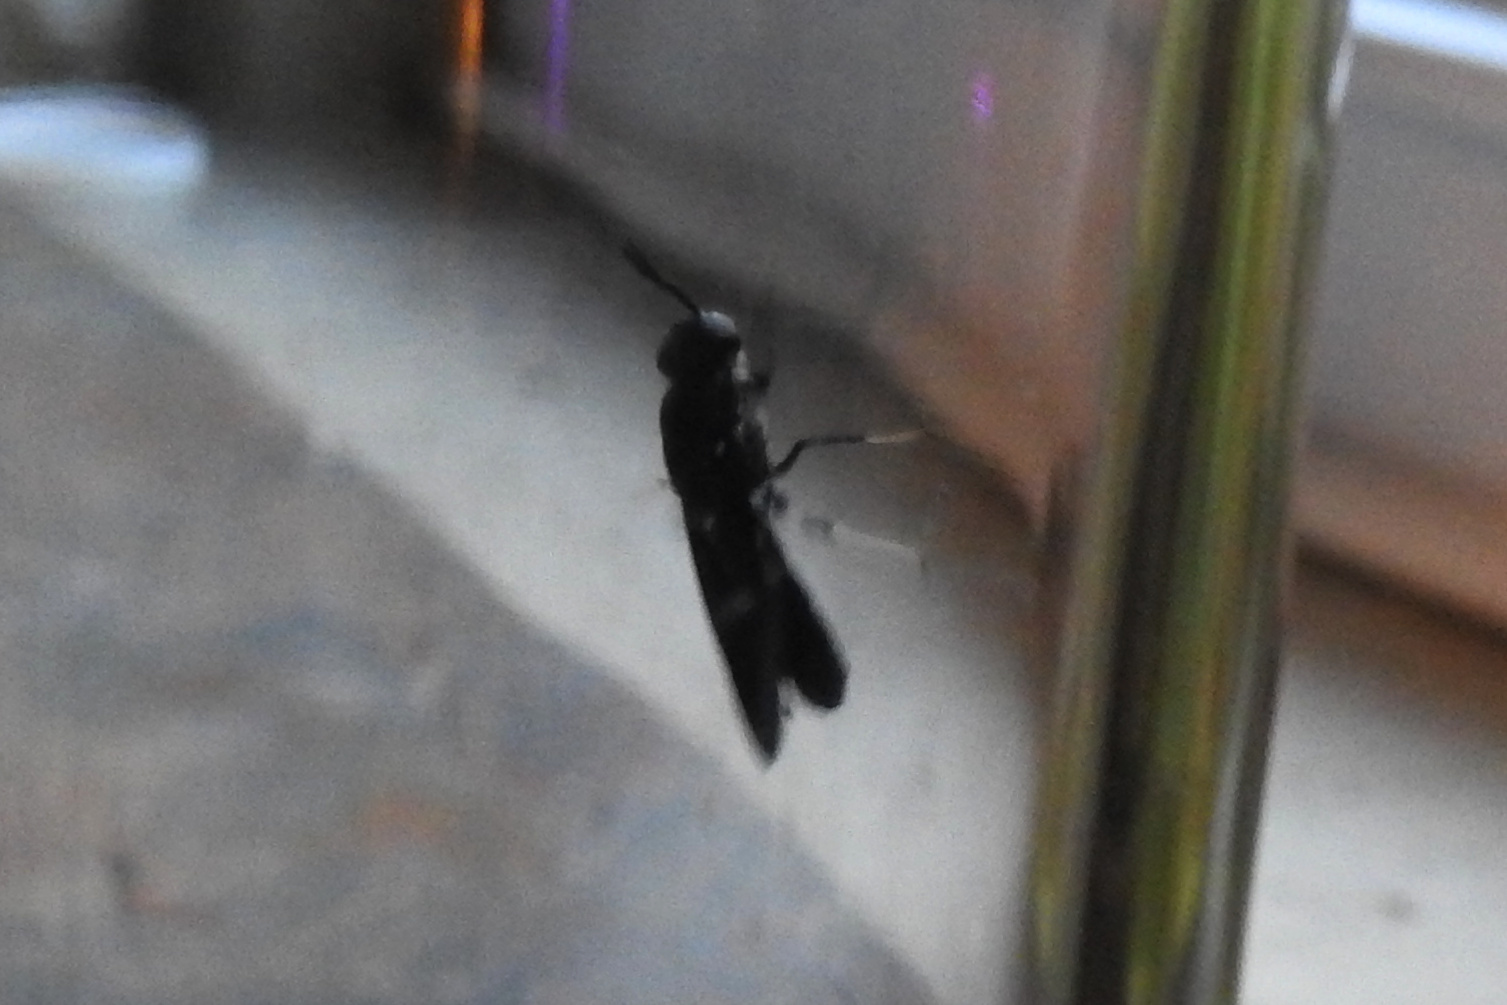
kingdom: Animalia
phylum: Arthropoda
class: Insecta
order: Diptera
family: Stratiomyidae
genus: Hermetia
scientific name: Hermetia illucens
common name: Black soldier fly
